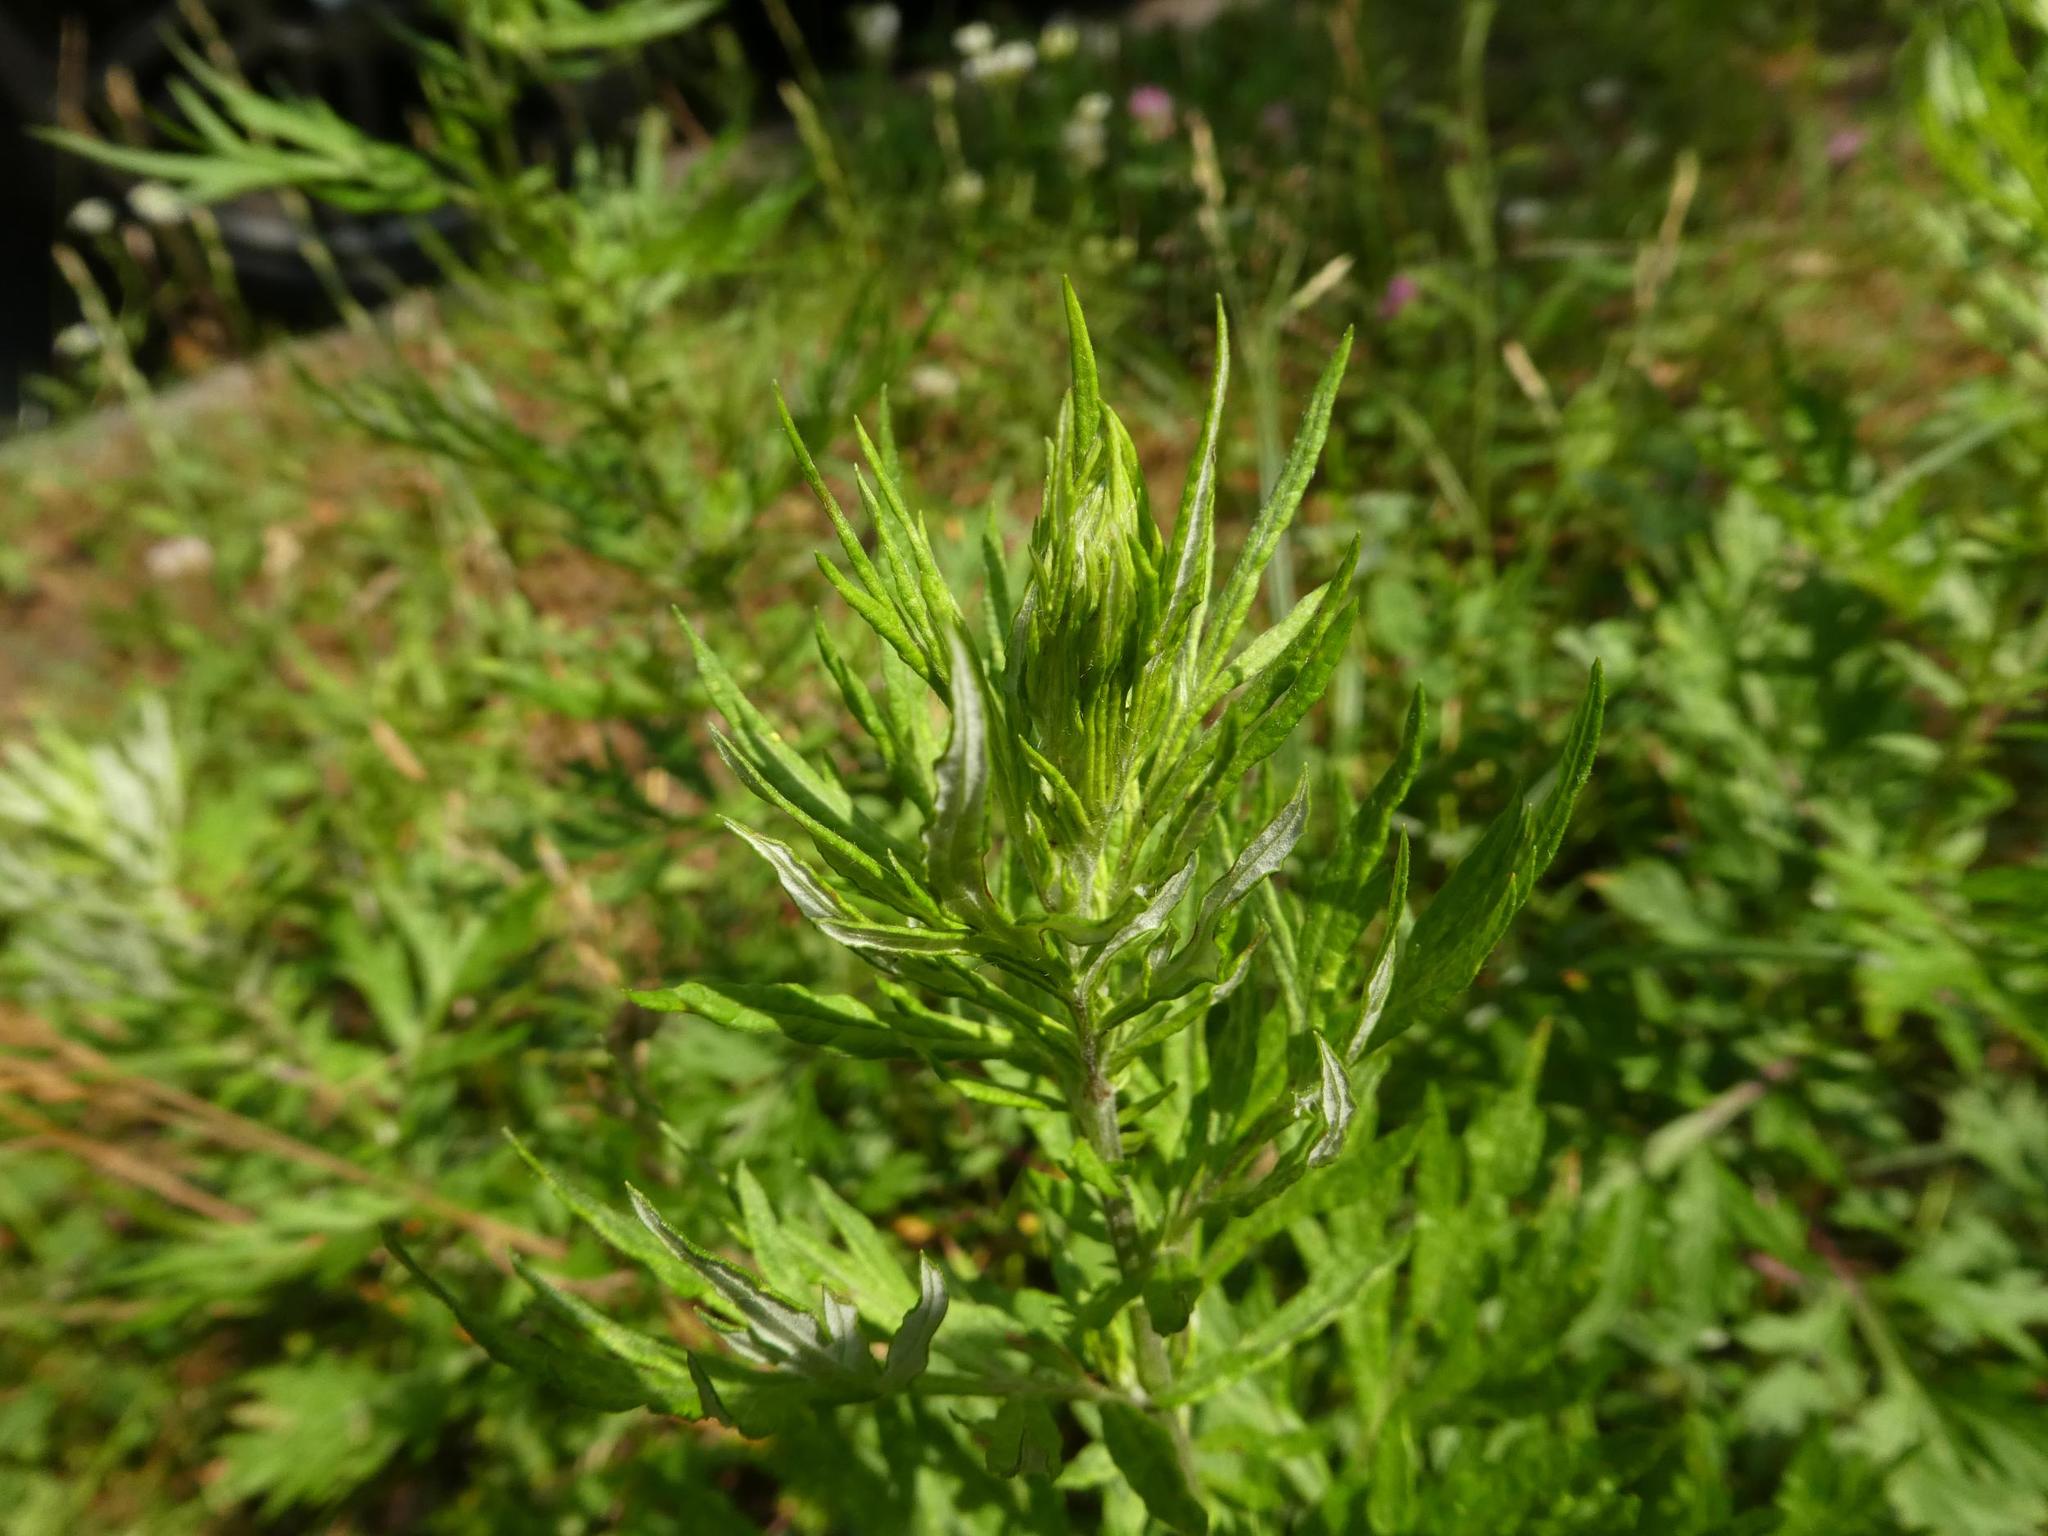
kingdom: Plantae
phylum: Tracheophyta
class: Magnoliopsida
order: Asterales
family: Asteraceae
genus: Artemisia
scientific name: Artemisia vulgaris
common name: Mugwort
